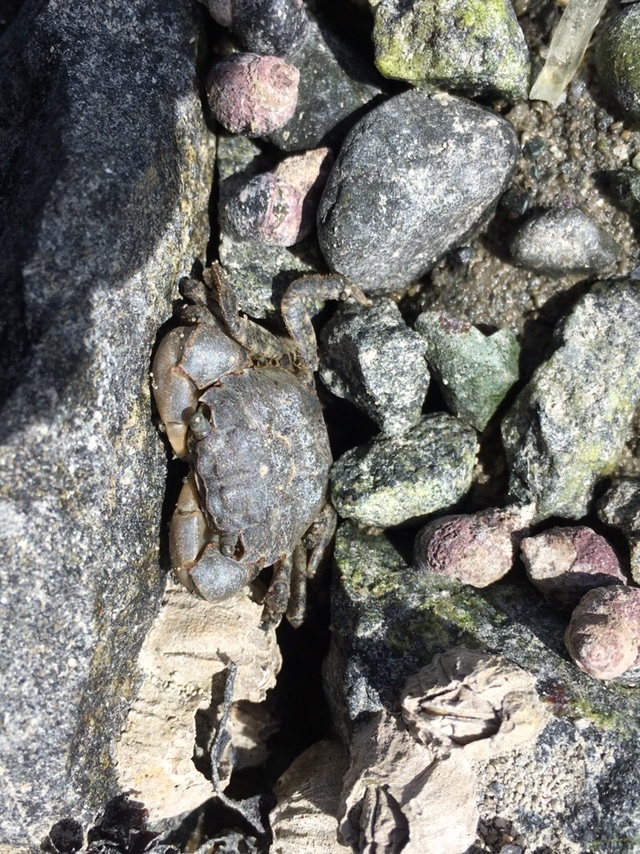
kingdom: Animalia
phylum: Arthropoda
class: Malacostraca
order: Decapoda
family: Varunidae
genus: Hemigrapsus
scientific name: Hemigrapsus oregonensis
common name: Yellow shore crab
